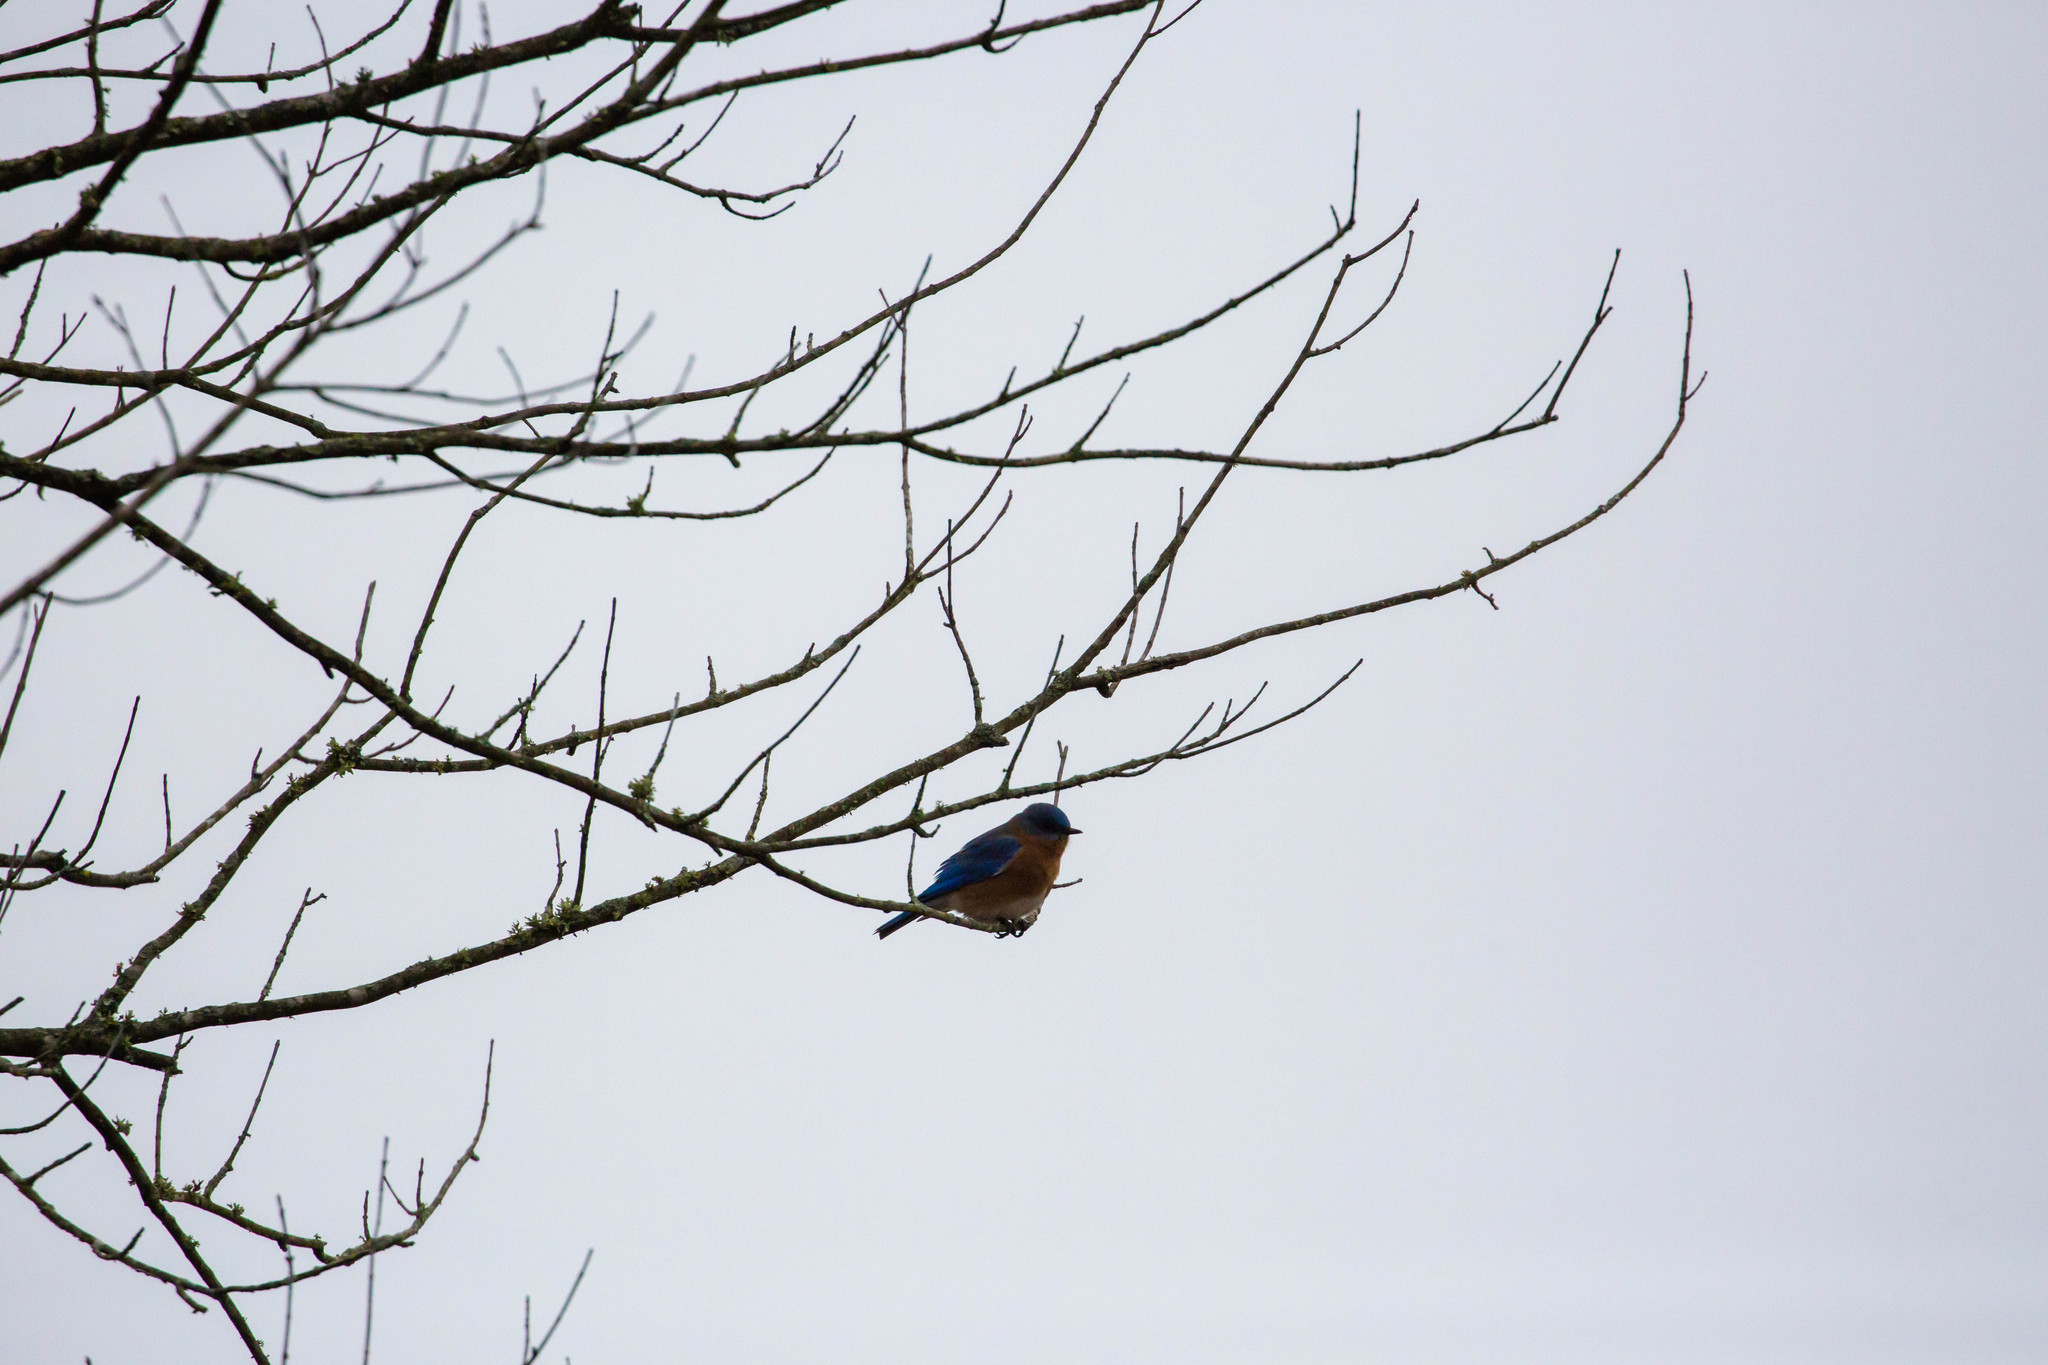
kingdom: Animalia
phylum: Chordata
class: Aves
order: Passeriformes
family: Turdidae
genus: Sialia
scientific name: Sialia sialis
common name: Eastern bluebird
